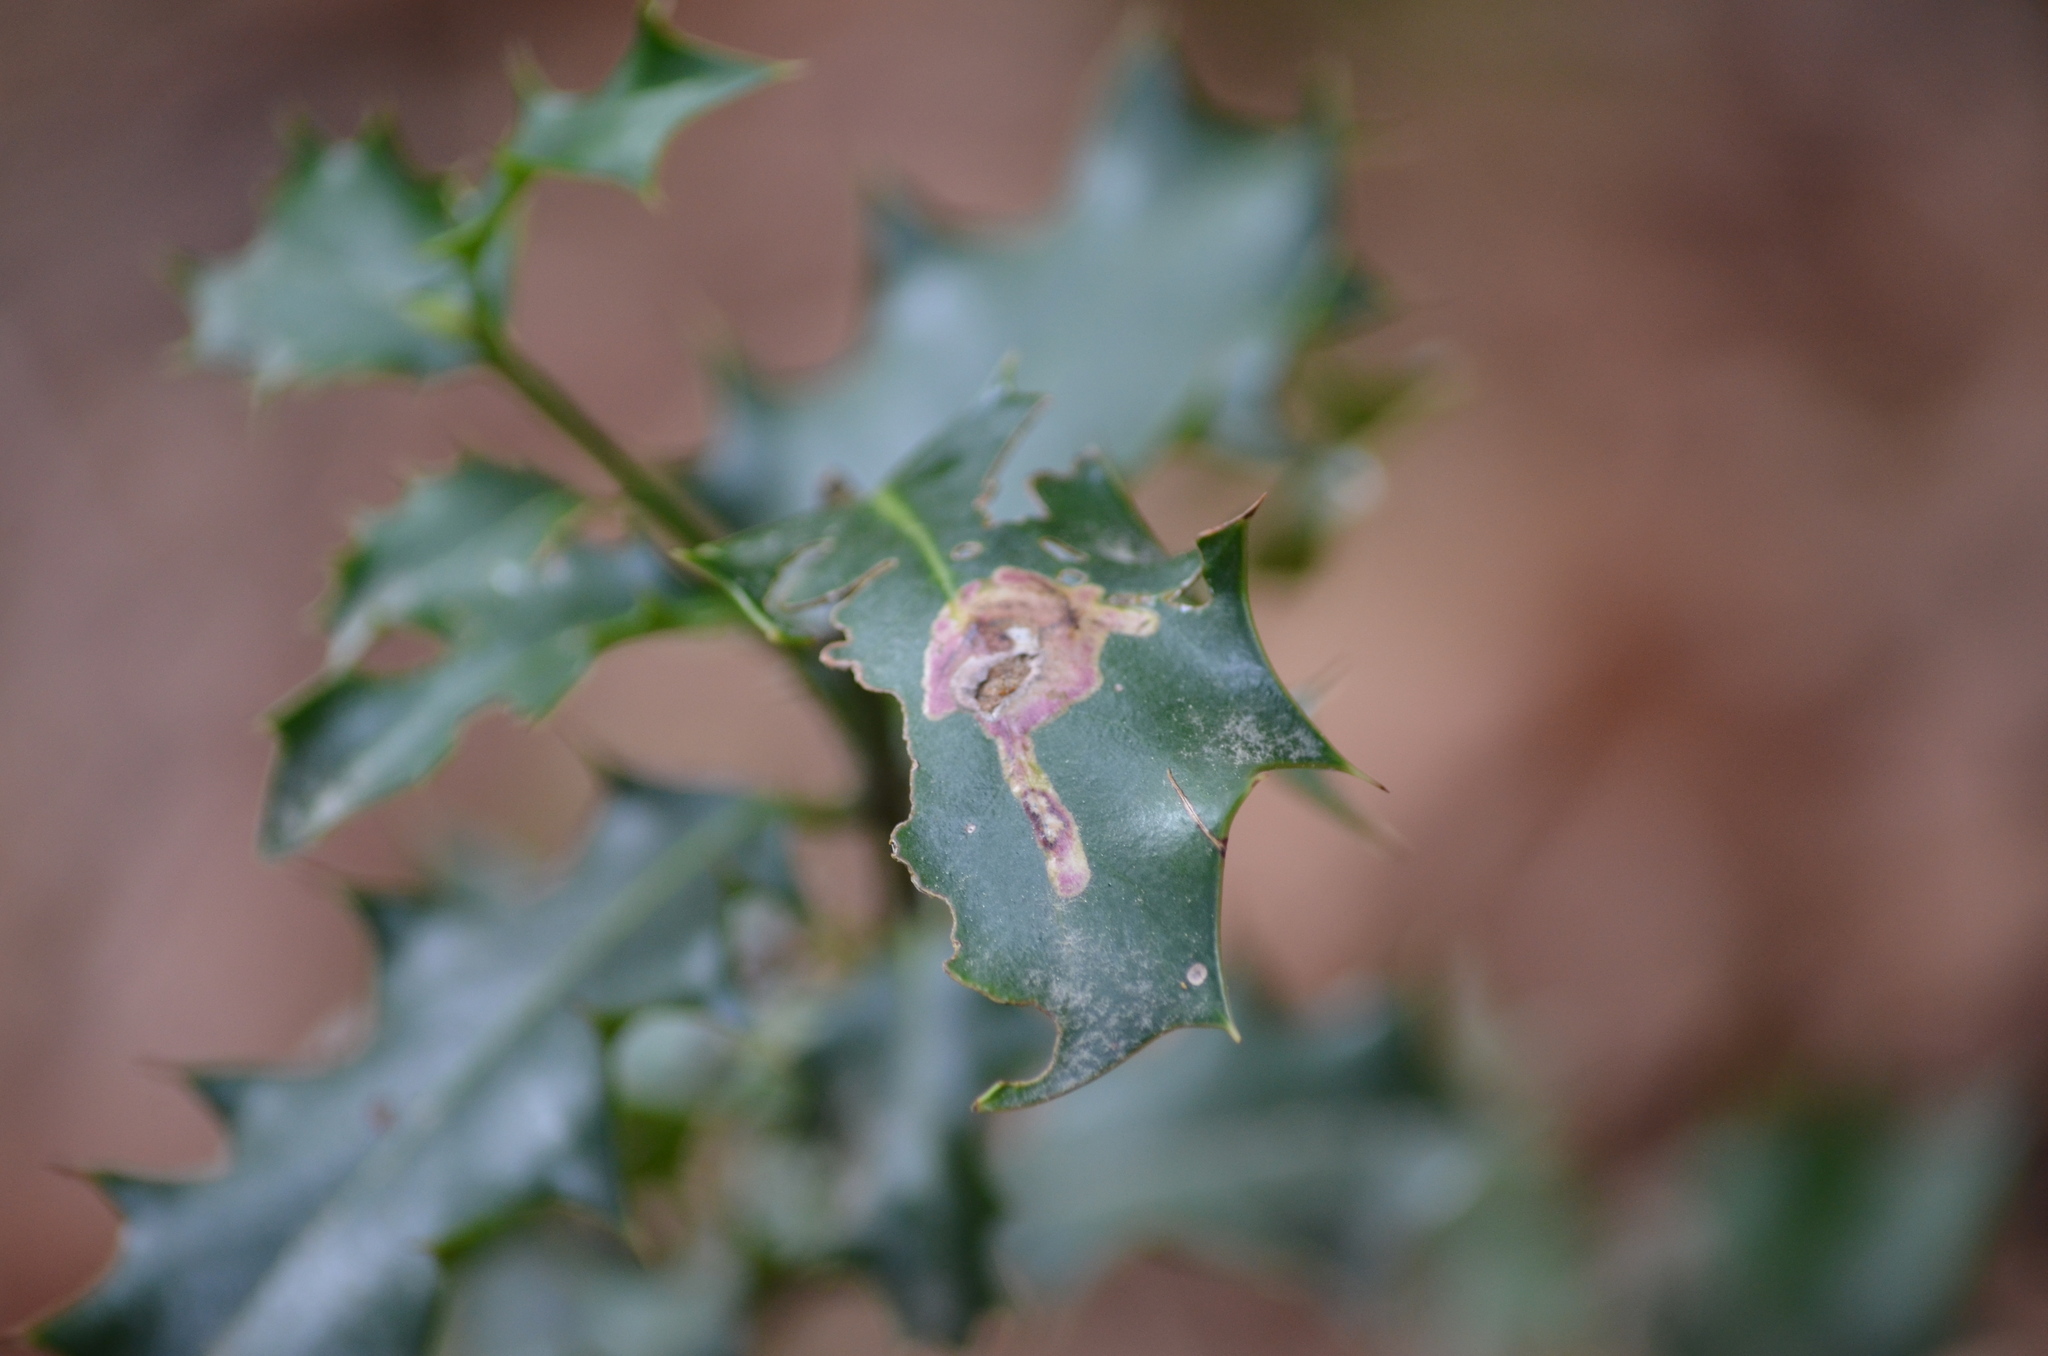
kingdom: Animalia
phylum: Arthropoda
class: Insecta
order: Diptera
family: Agromyzidae
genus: Phytomyza
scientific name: Phytomyza ilicis
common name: Holly leafminer
